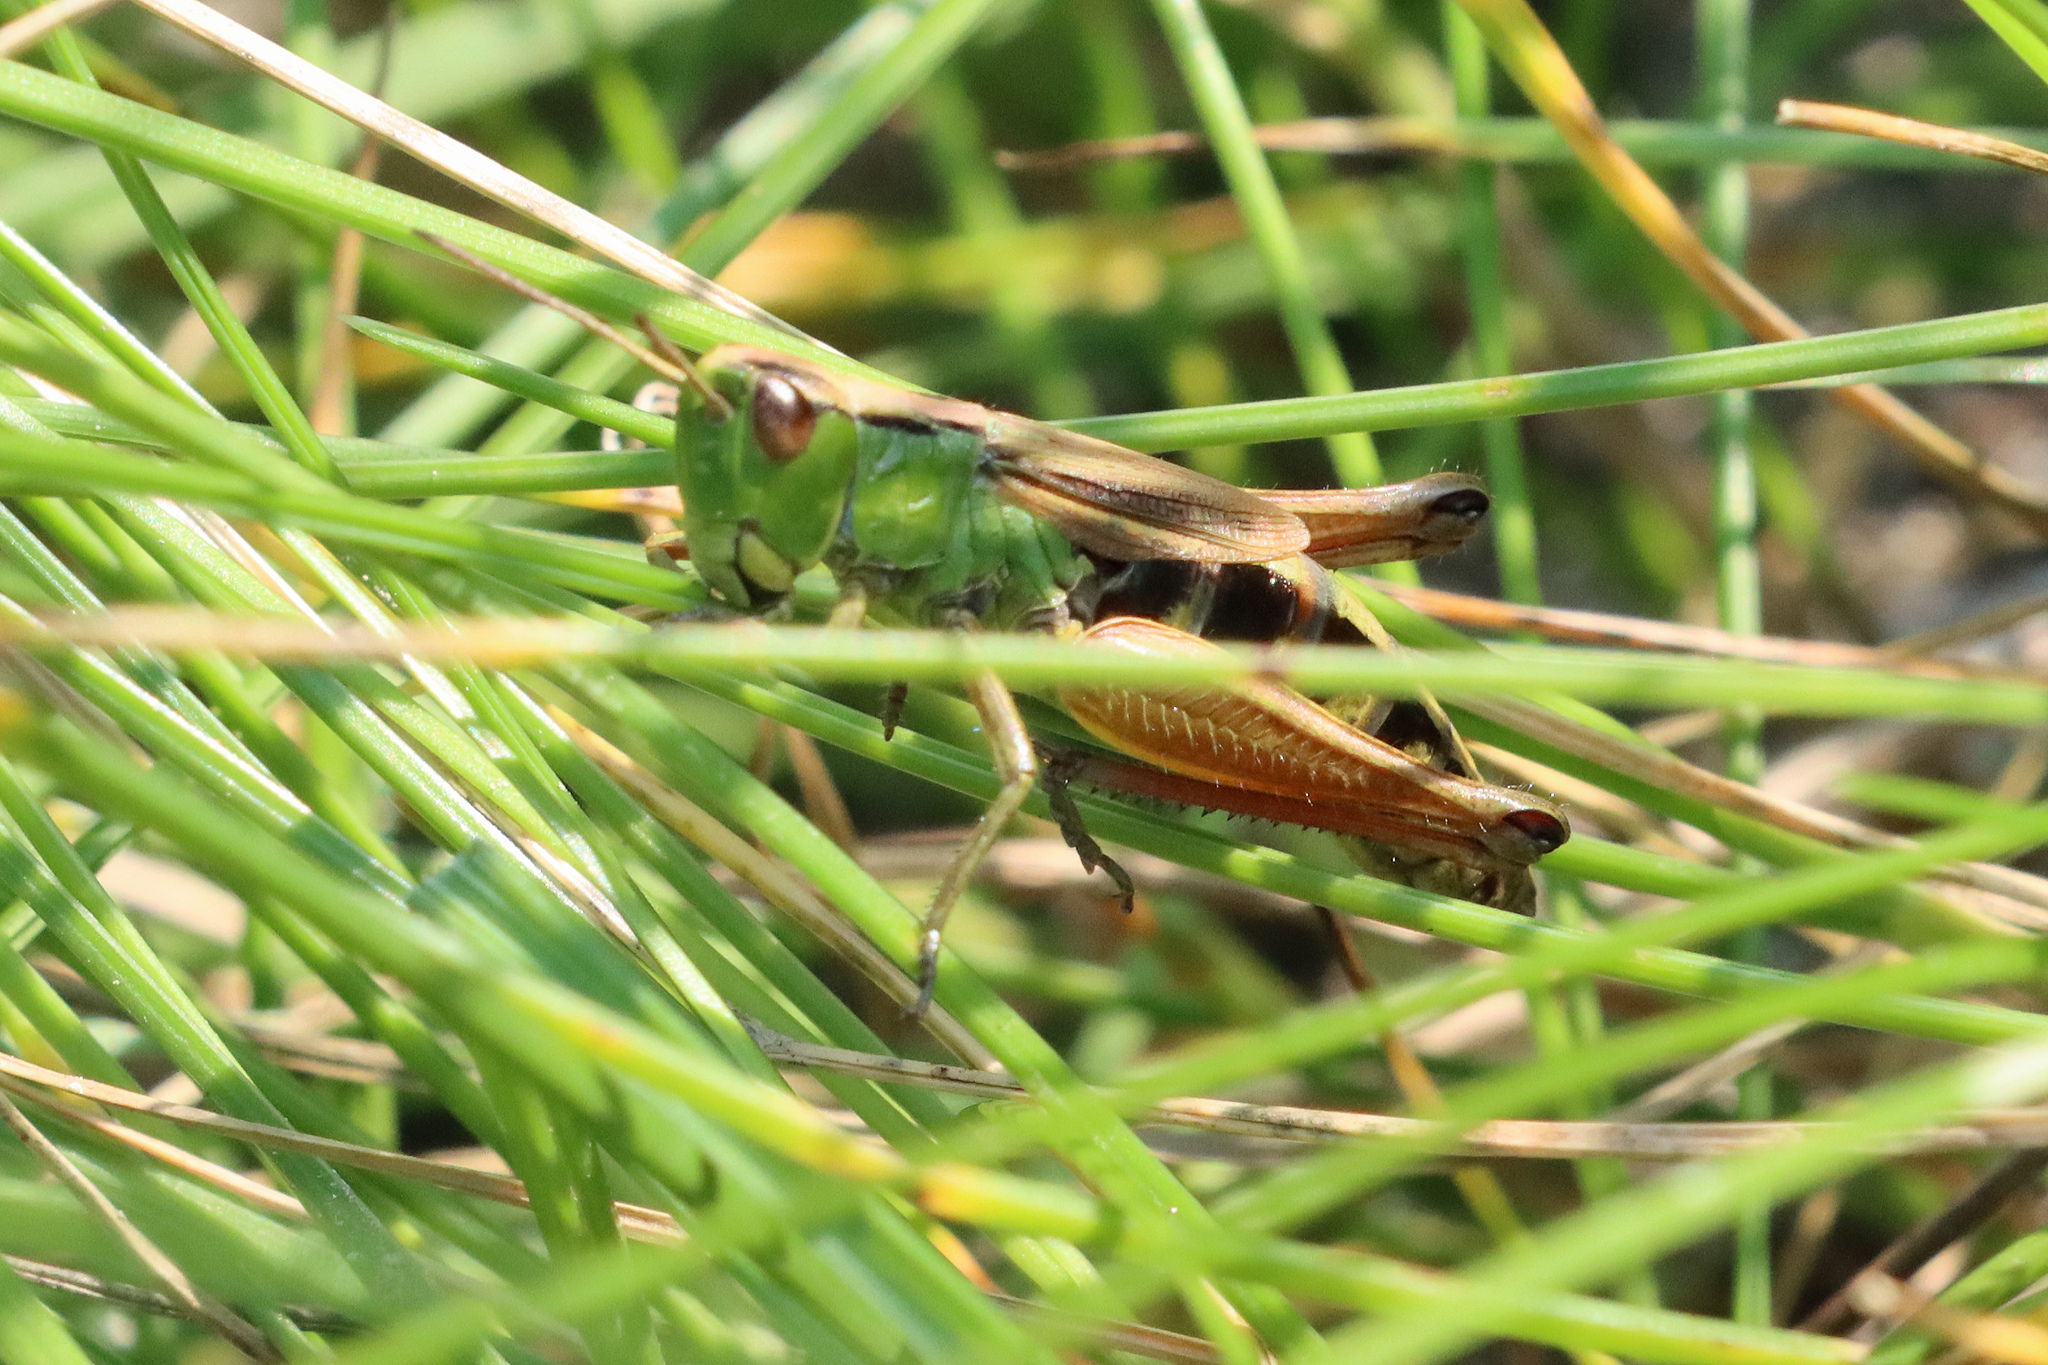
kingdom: Animalia
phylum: Arthropoda
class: Insecta
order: Orthoptera
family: Acrididae
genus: Pseudochorthippus
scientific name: Pseudochorthippus parallelus
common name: Meadow grasshopper
